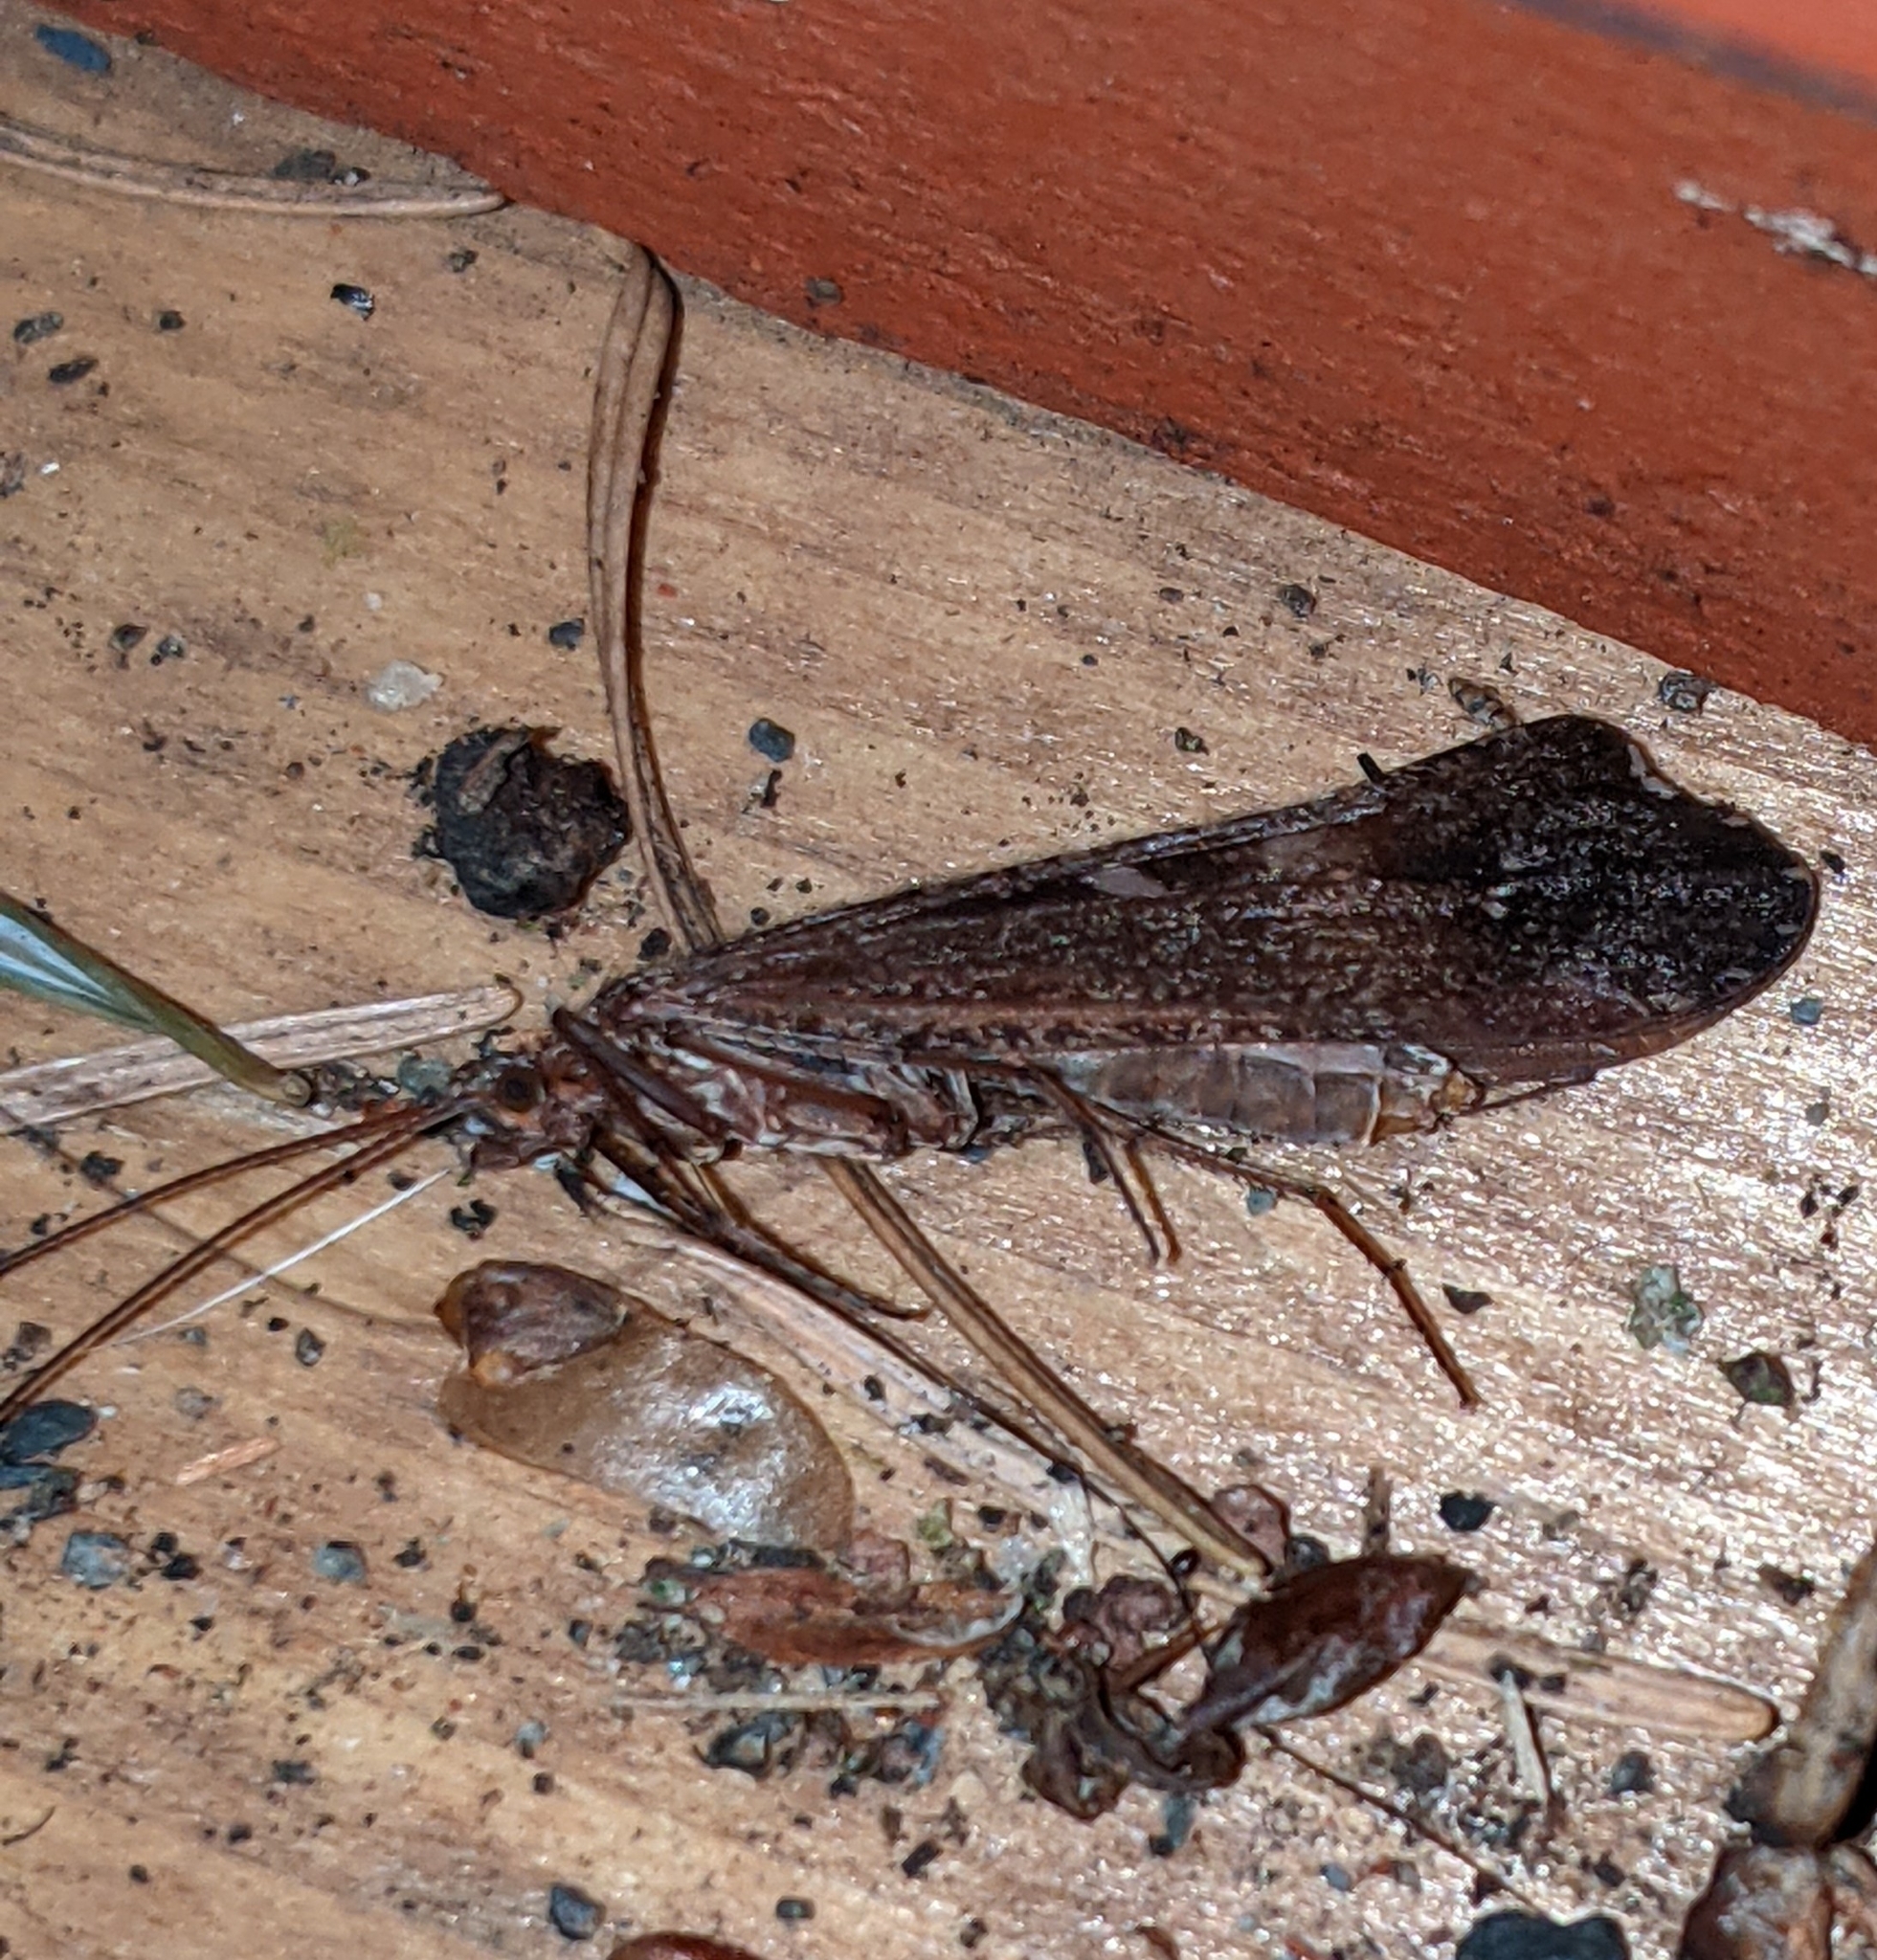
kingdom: Animalia
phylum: Arthropoda
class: Insecta
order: Trichoptera
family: Limnephilidae
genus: Glyphopsyche
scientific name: Glyphopsyche irrorata
